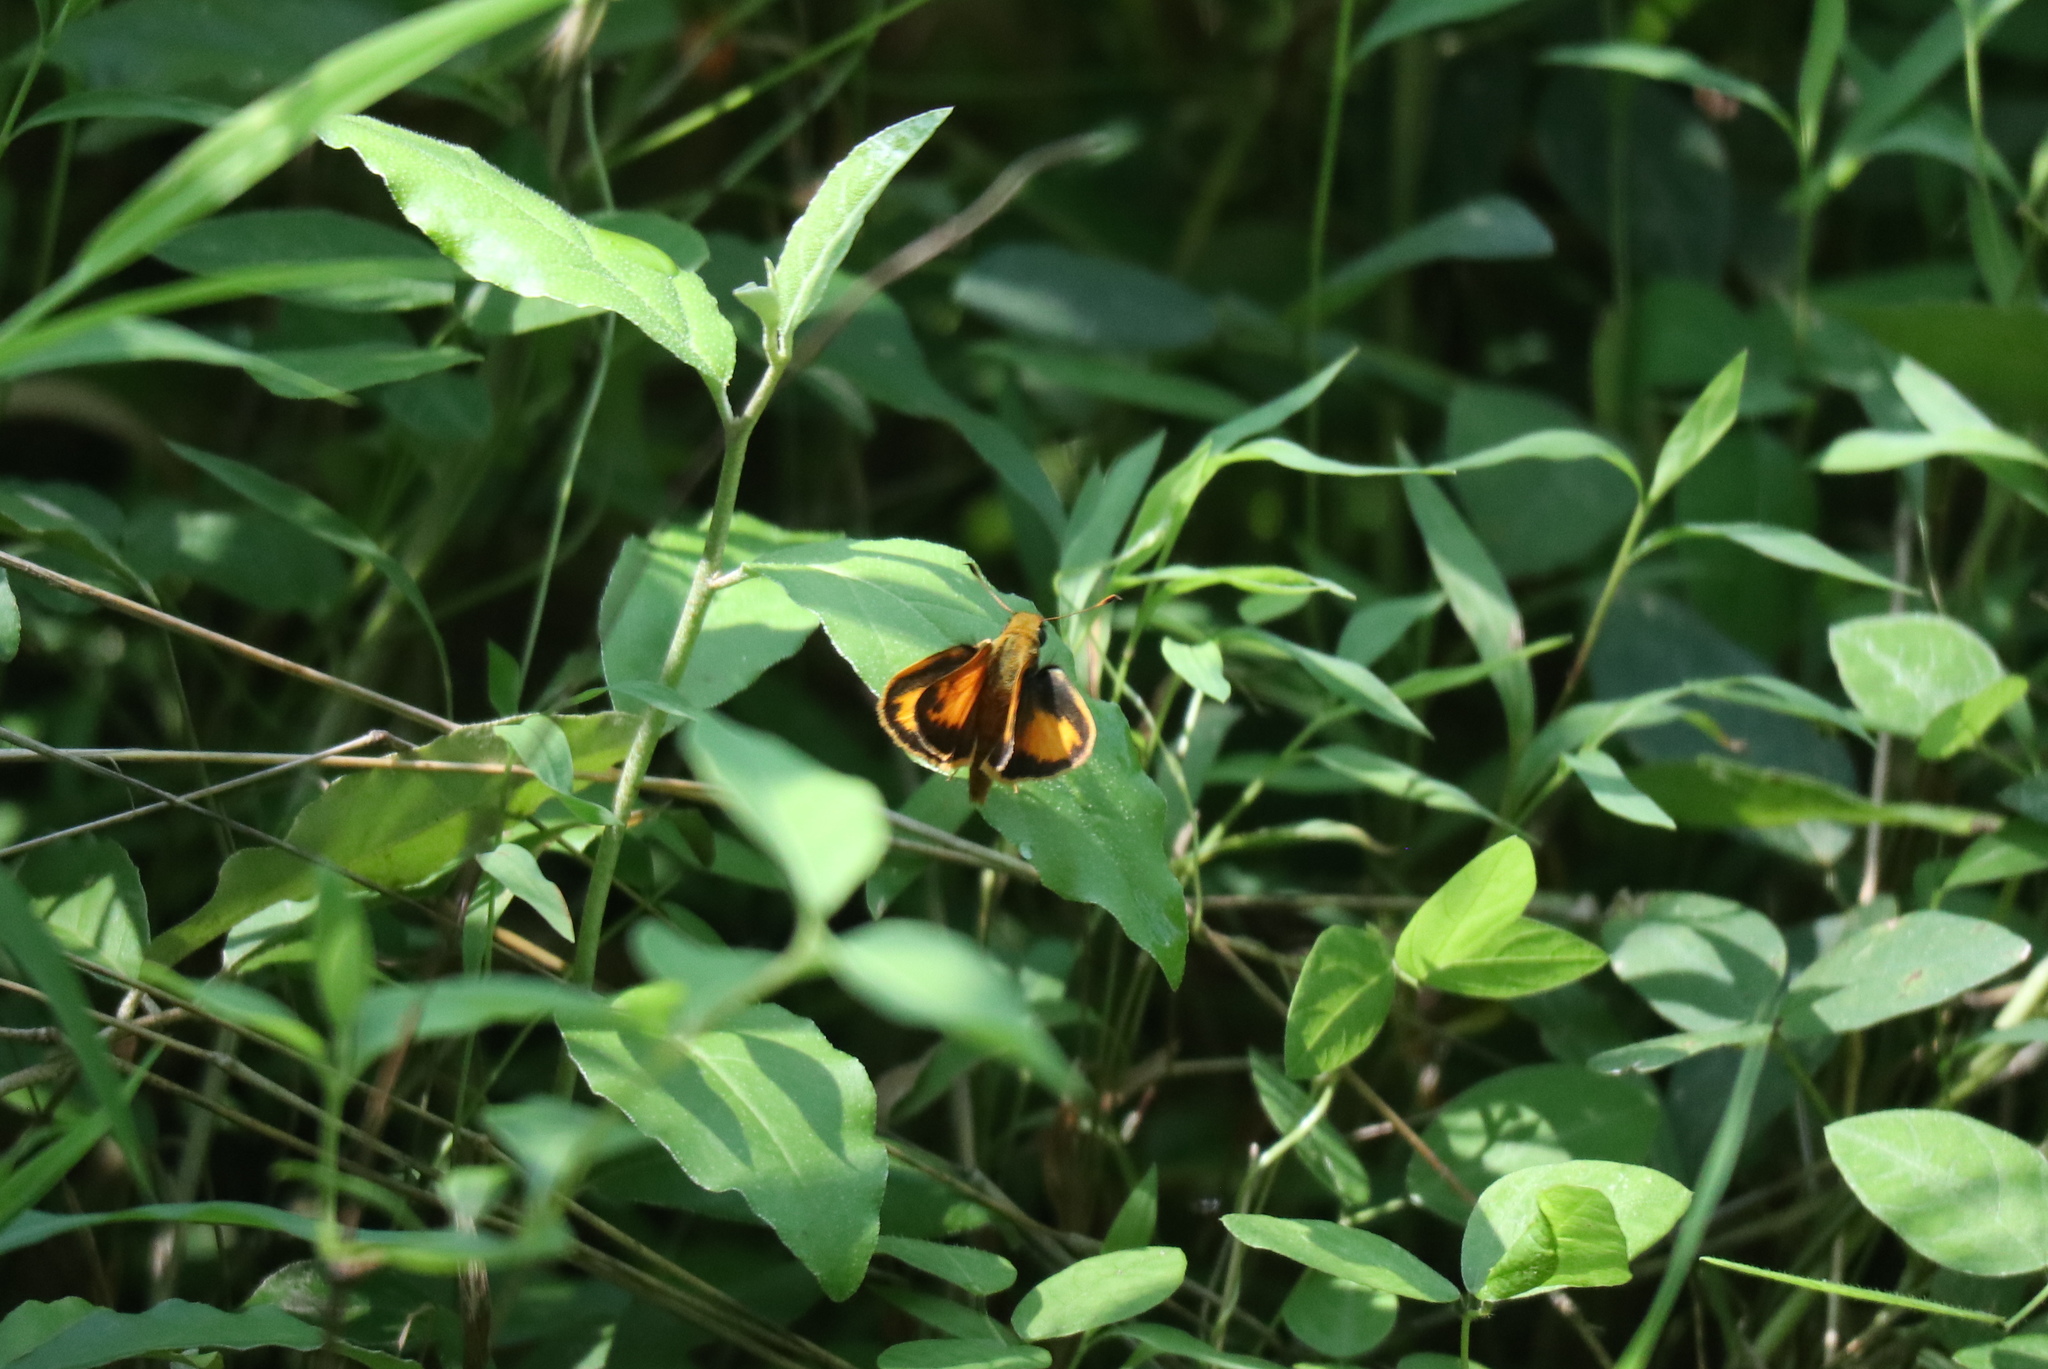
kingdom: Animalia
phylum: Arthropoda
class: Insecta
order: Lepidoptera
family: Hesperiidae
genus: Lon
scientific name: Lon zabulon
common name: Zabulon skipper
